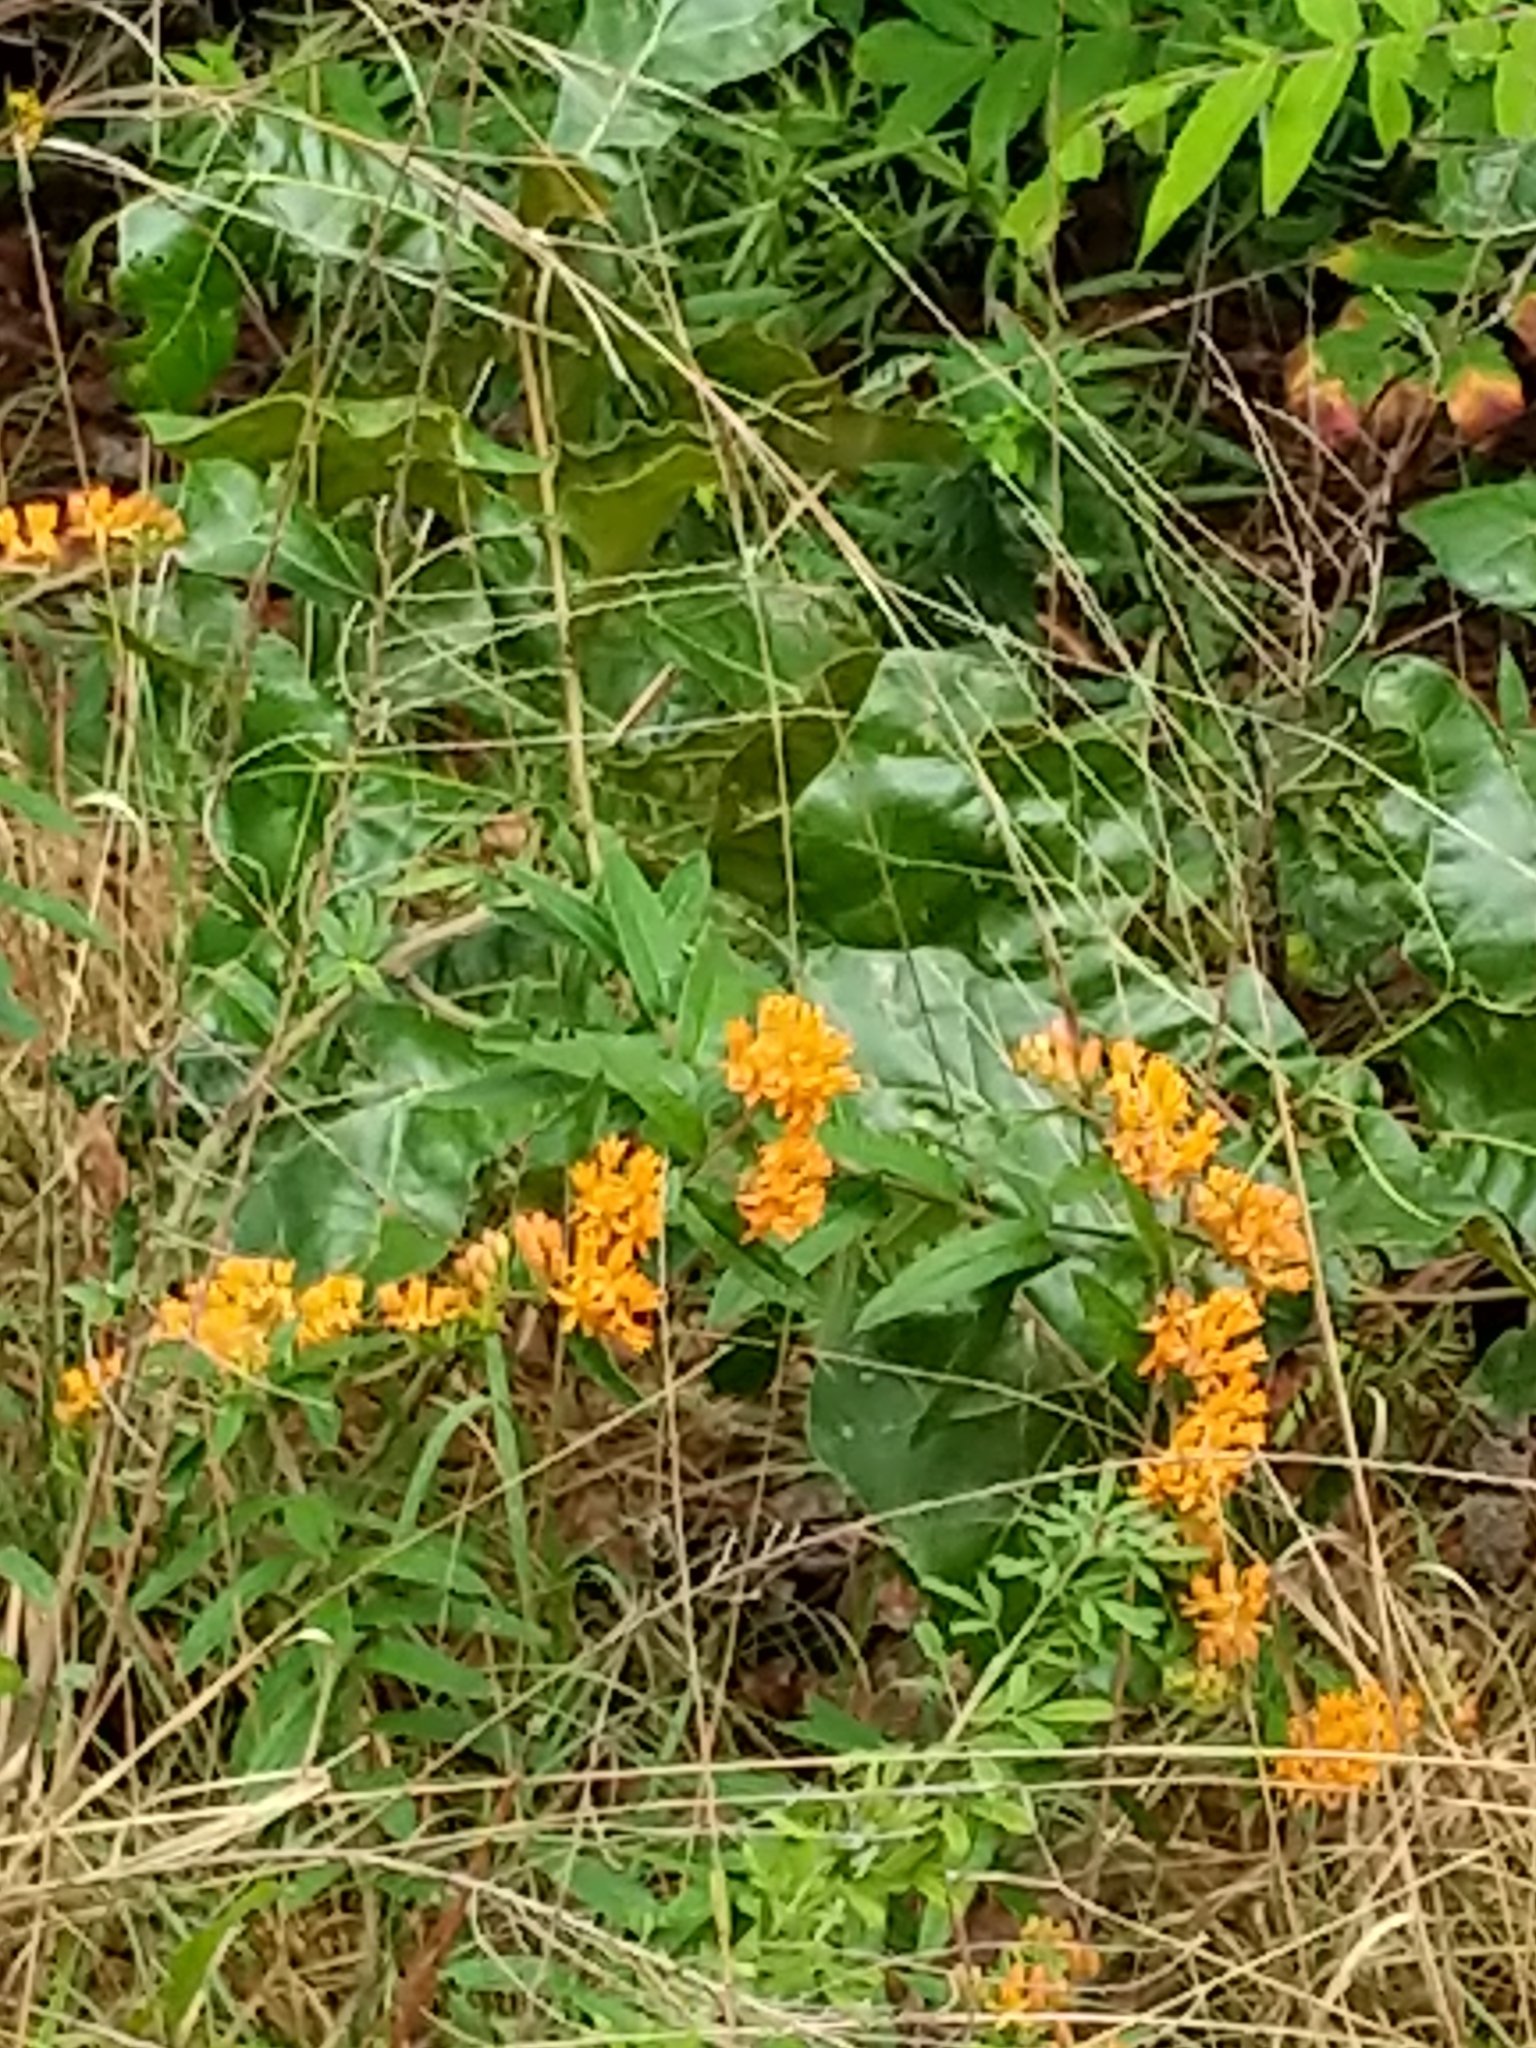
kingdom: Plantae
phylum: Tracheophyta
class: Magnoliopsida
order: Gentianales
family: Apocynaceae
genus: Asclepias
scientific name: Asclepias tuberosa
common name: Butterfly milkweed
